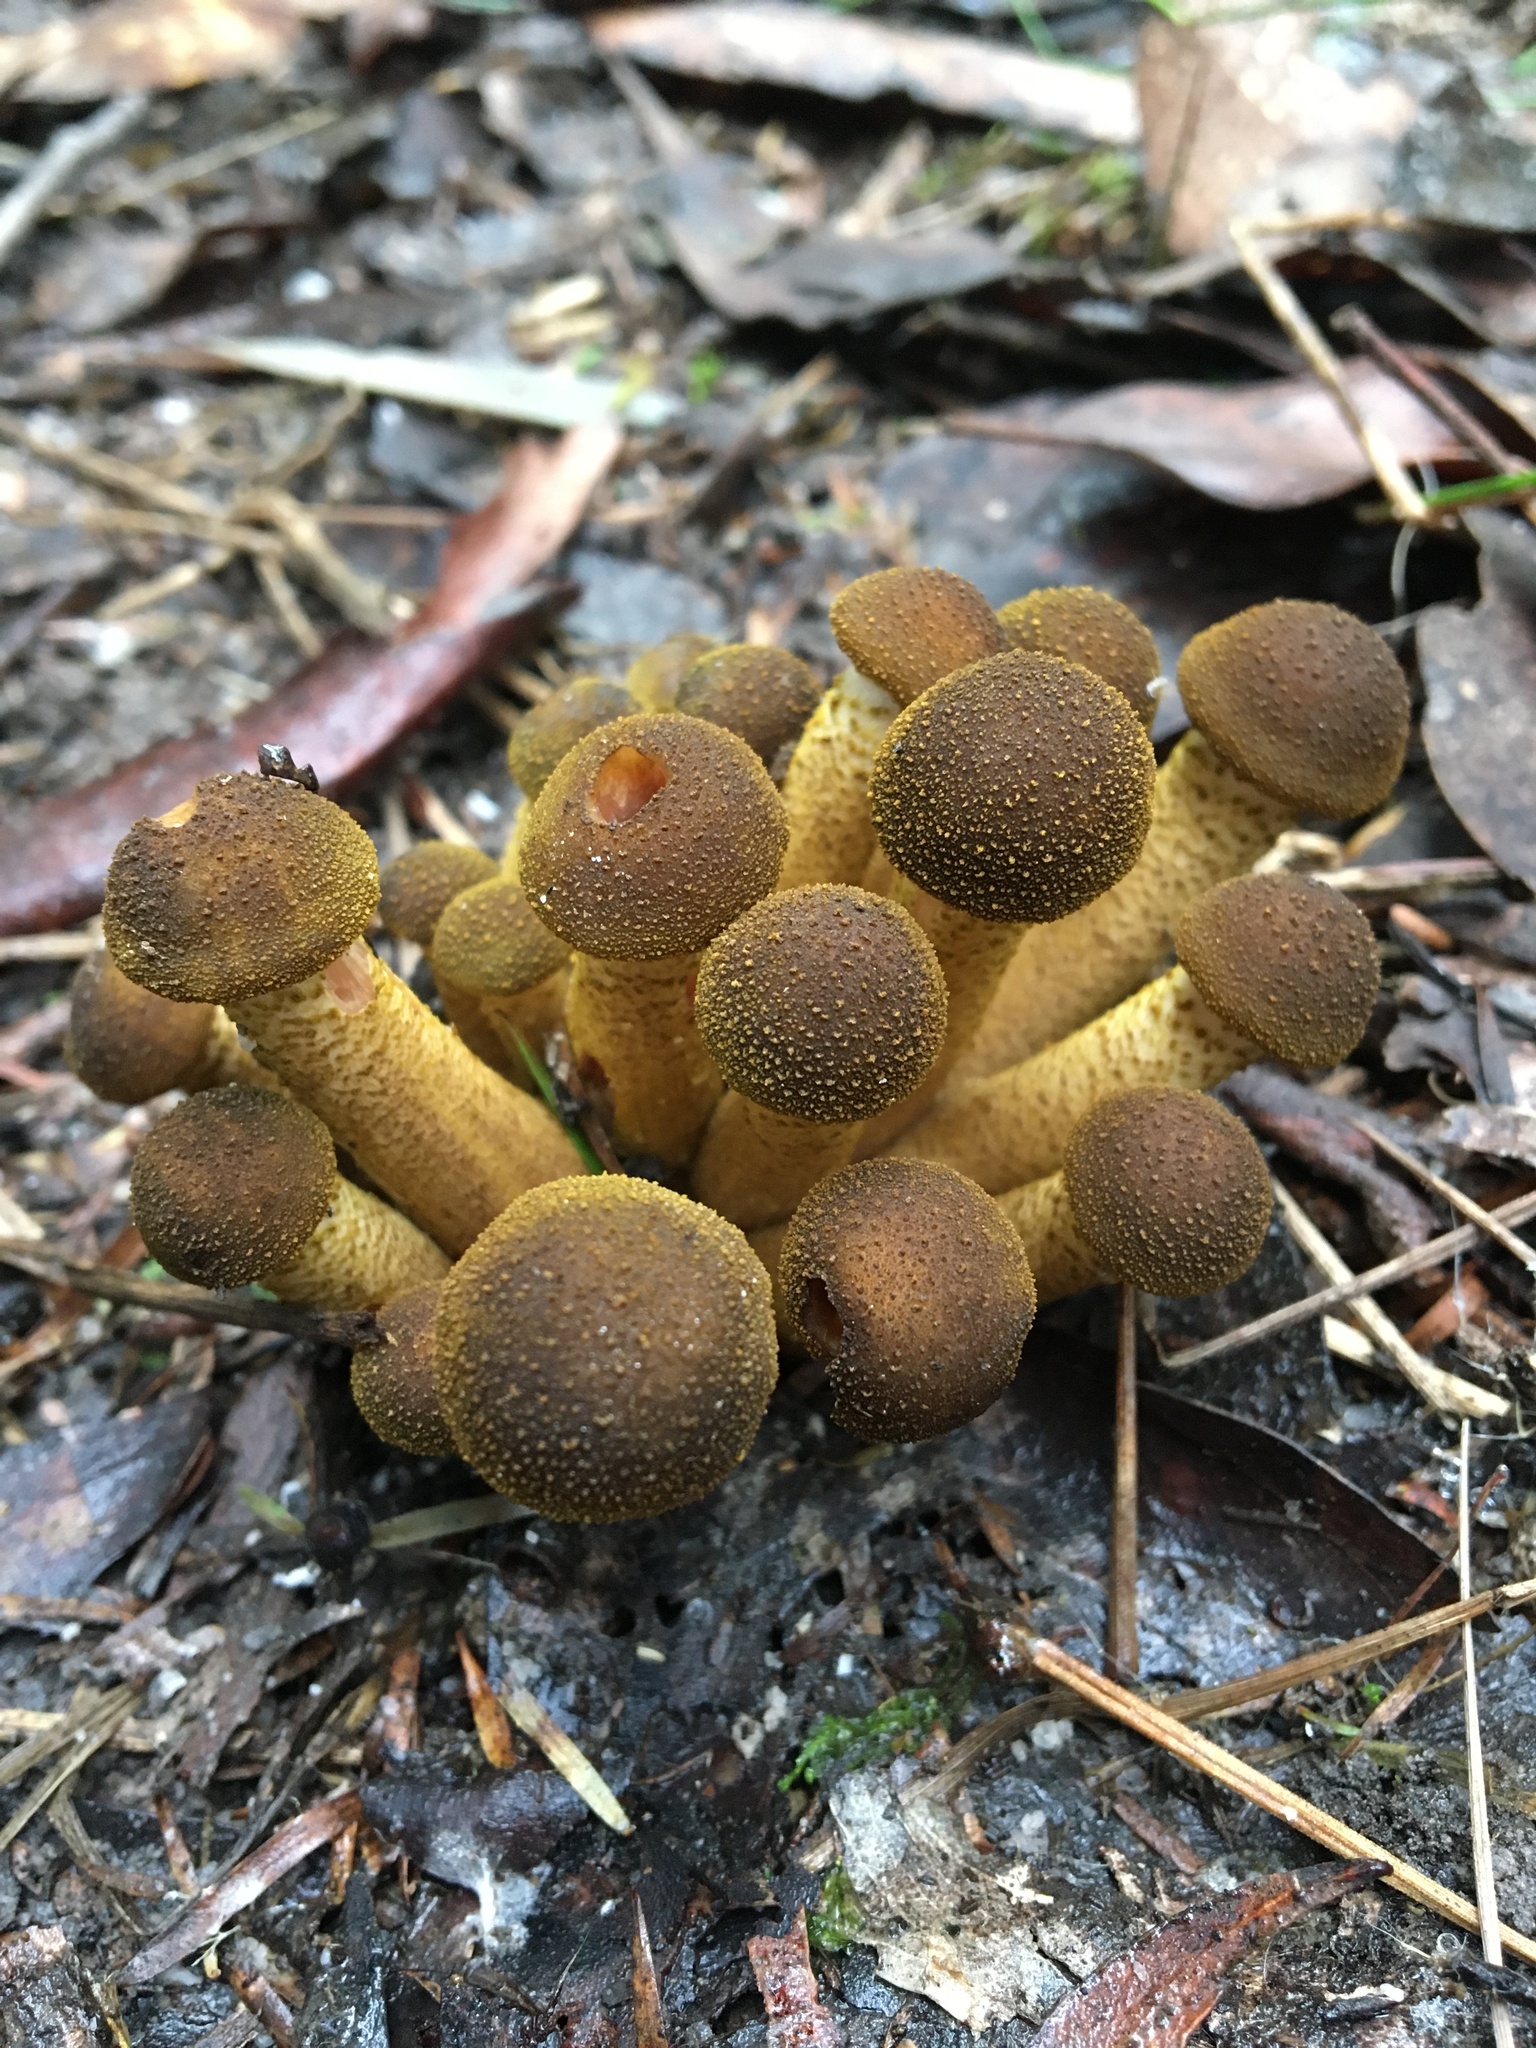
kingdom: Fungi
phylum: Basidiomycota
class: Agaricomycetes
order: Agaricales
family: Physalacriaceae
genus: Armillaria
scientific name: Armillaria luteobubalina
